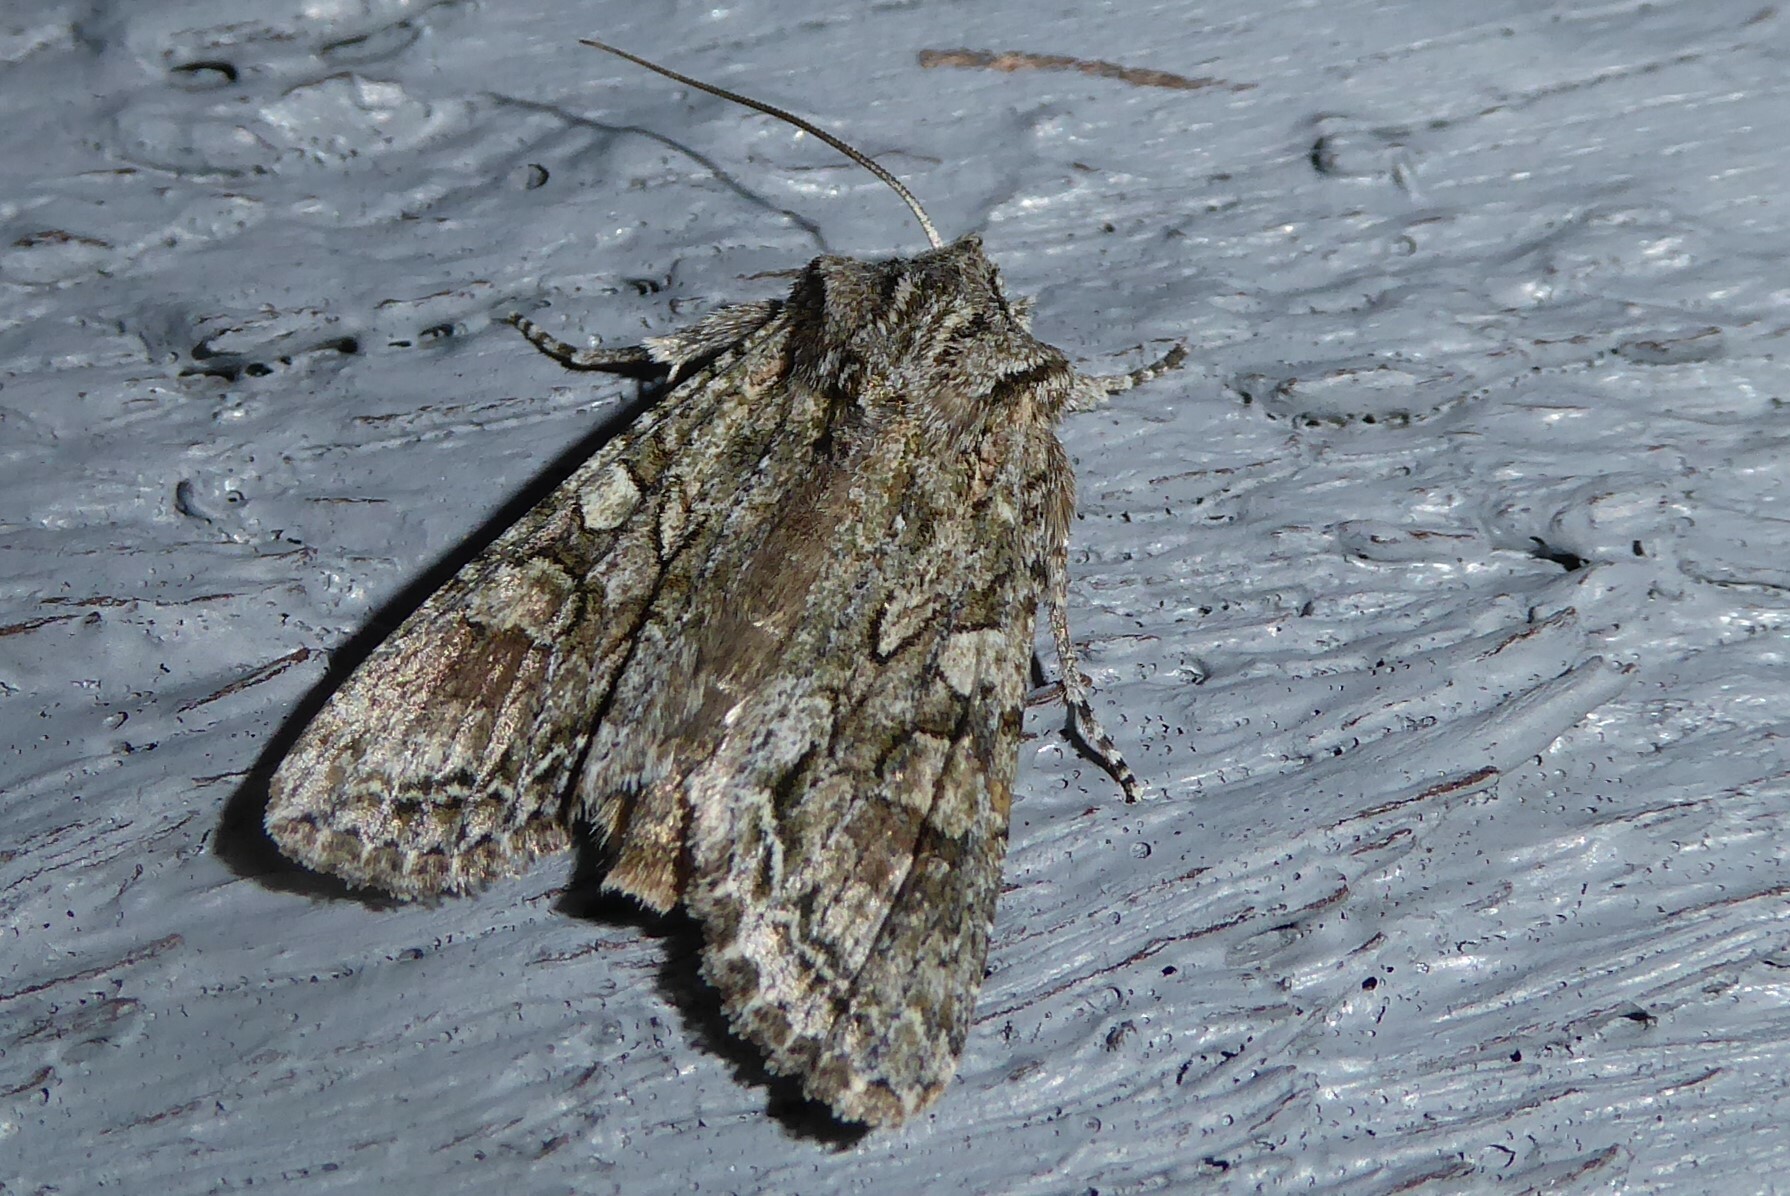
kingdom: Animalia
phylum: Arthropoda
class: Insecta
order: Lepidoptera
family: Noctuidae
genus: Ichneutica
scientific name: Ichneutica mutans
